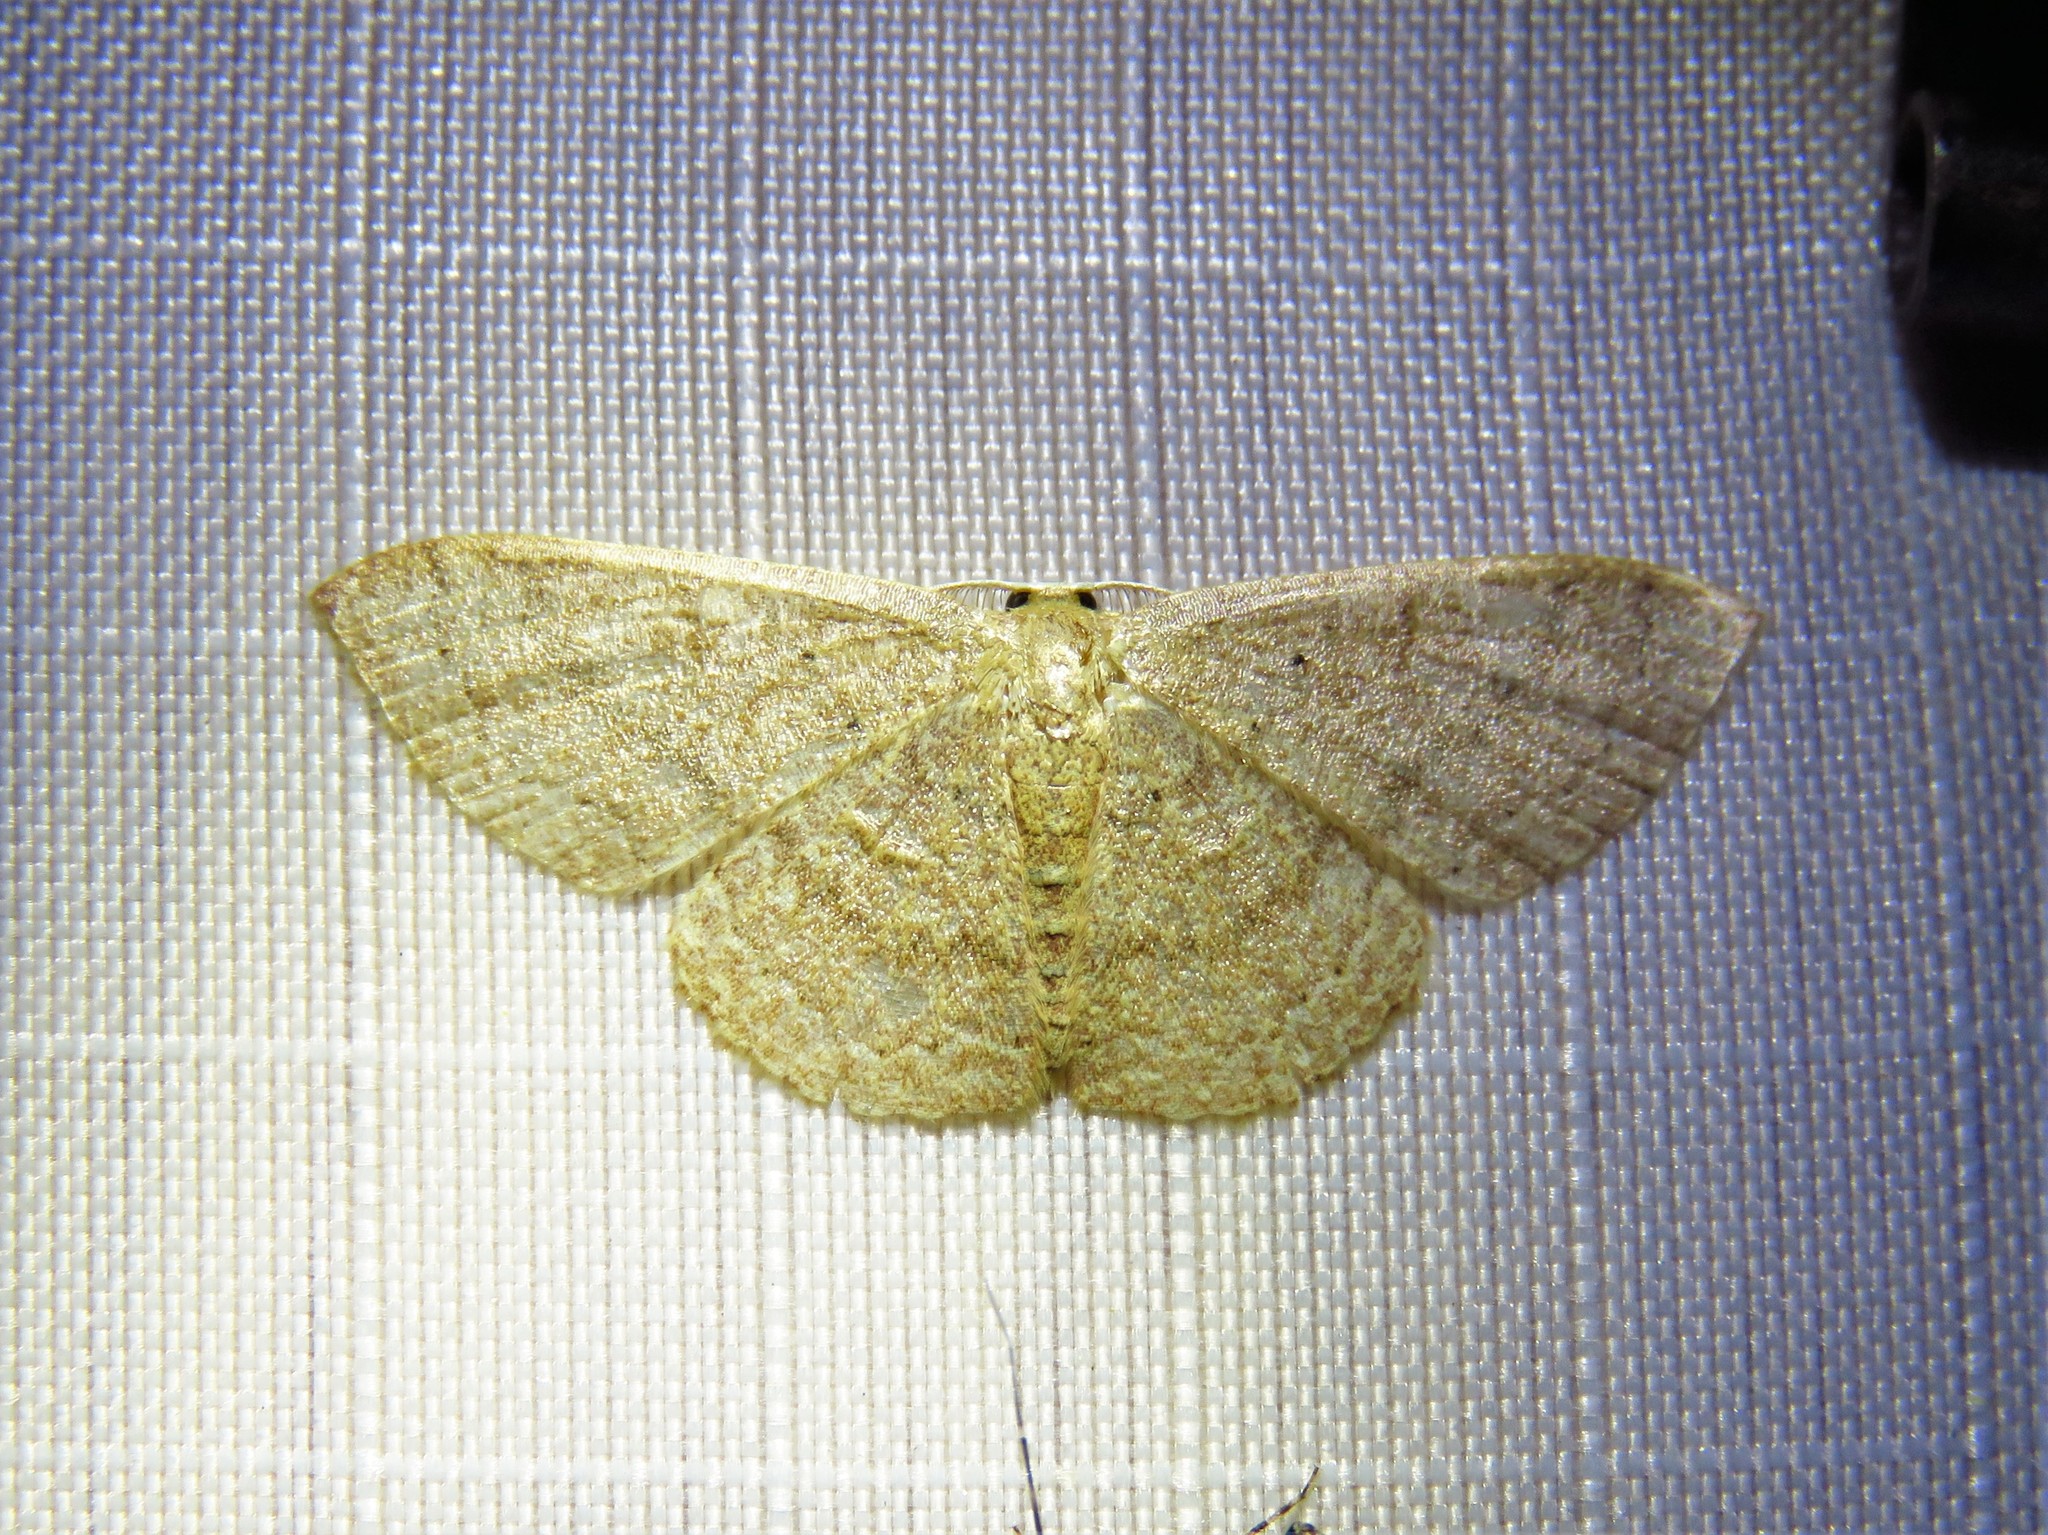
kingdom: Animalia
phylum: Arthropoda
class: Insecta
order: Lepidoptera
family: Geometridae
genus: Pleuroprucha
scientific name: Pleuroprucha insulsaria
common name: Common tan wave
